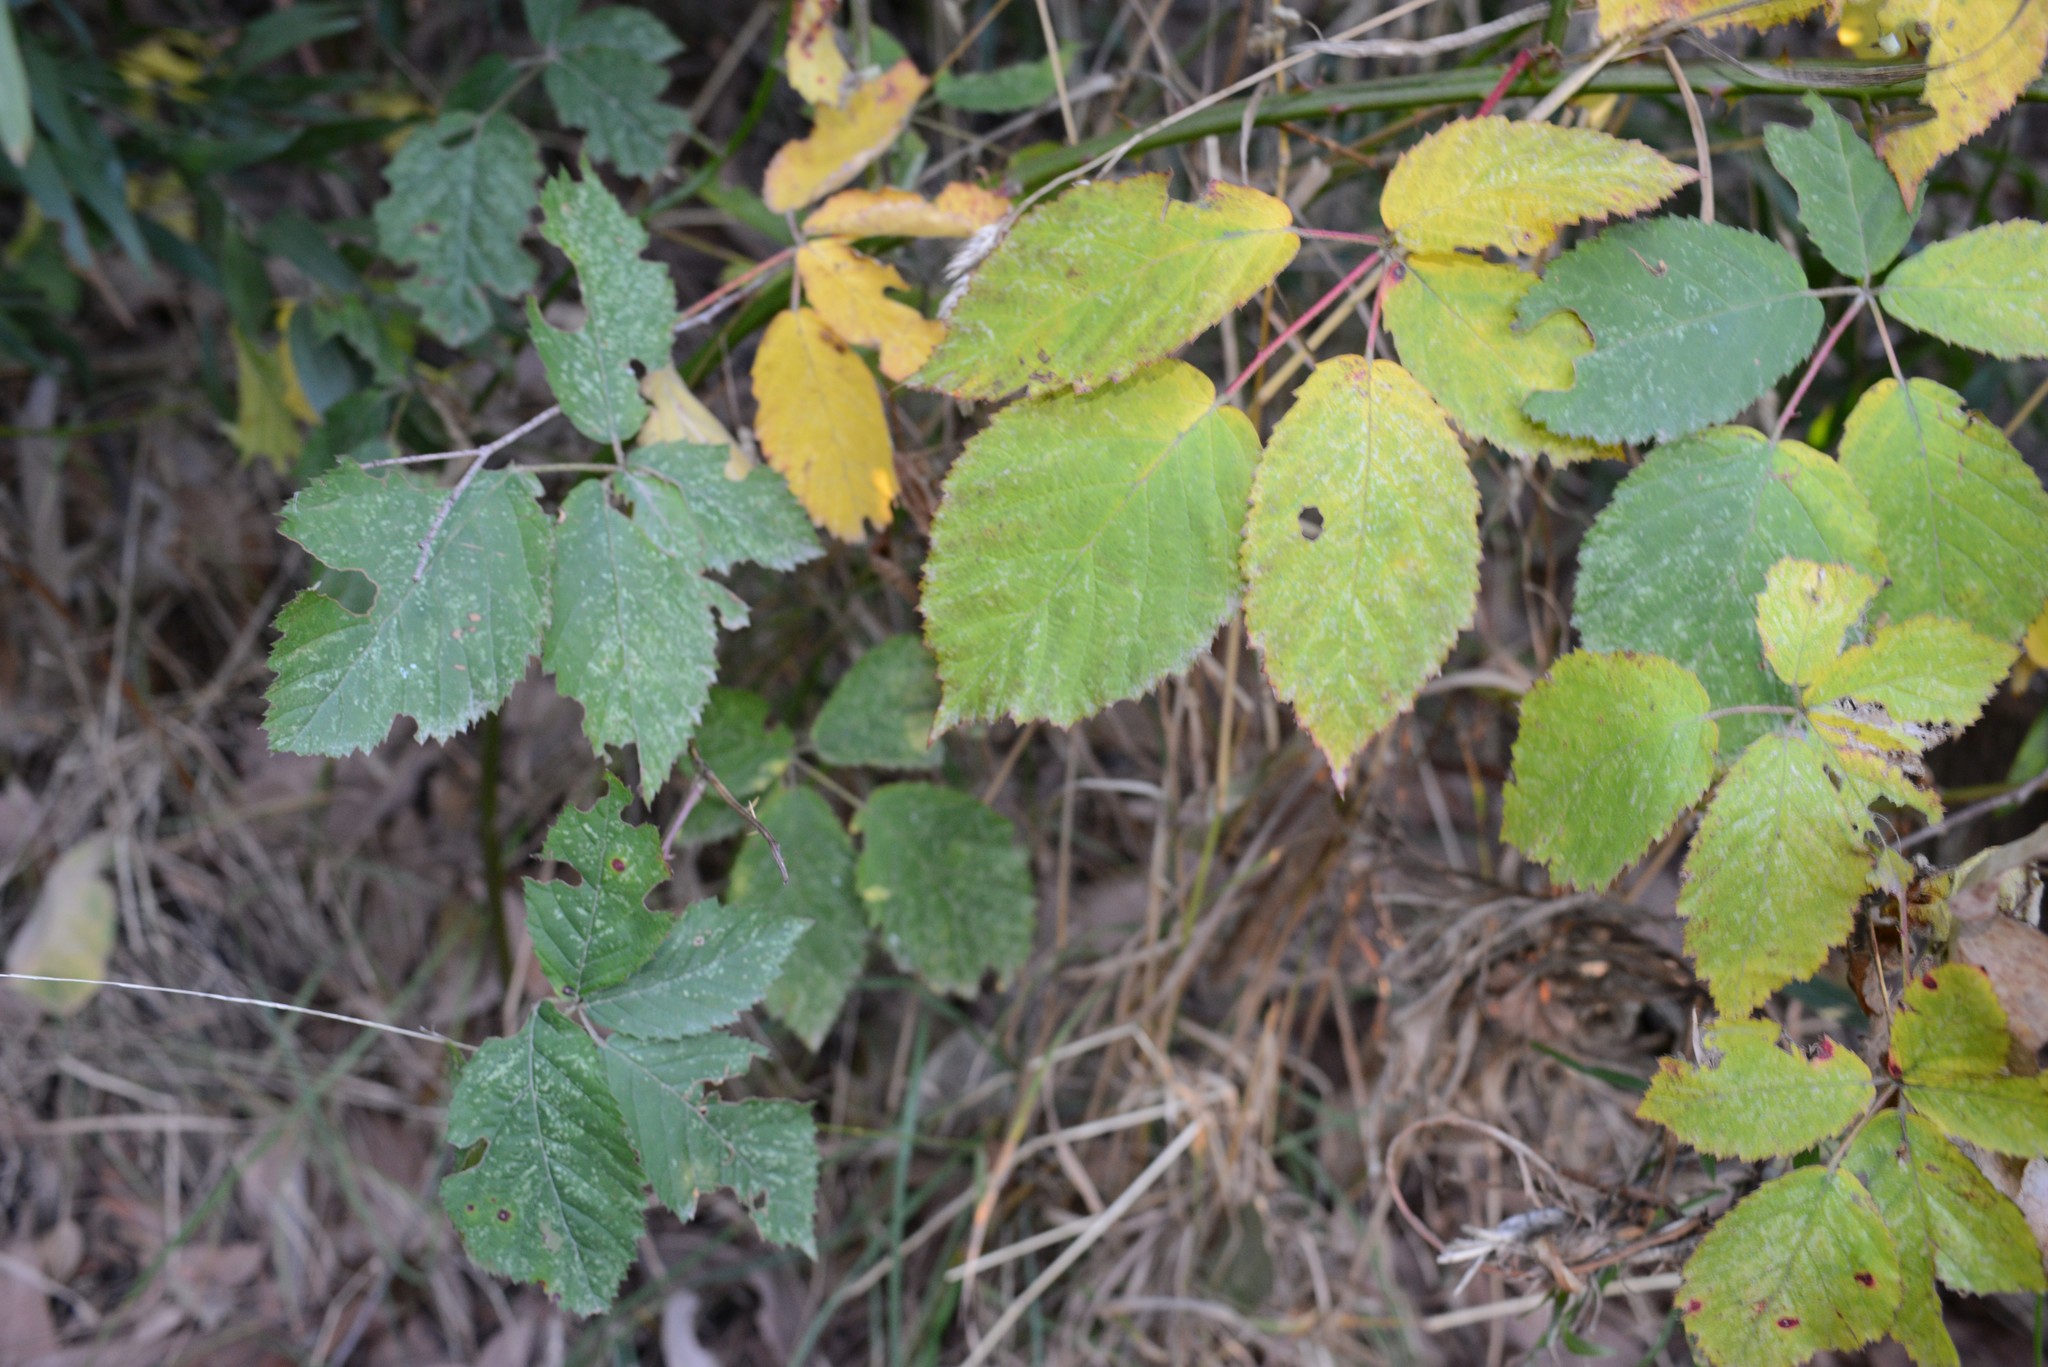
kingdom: Plantae
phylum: Tracheophyta
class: Magnoliopsida
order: Rosales
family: Rosaceae
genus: Rubus
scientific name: Rubus
